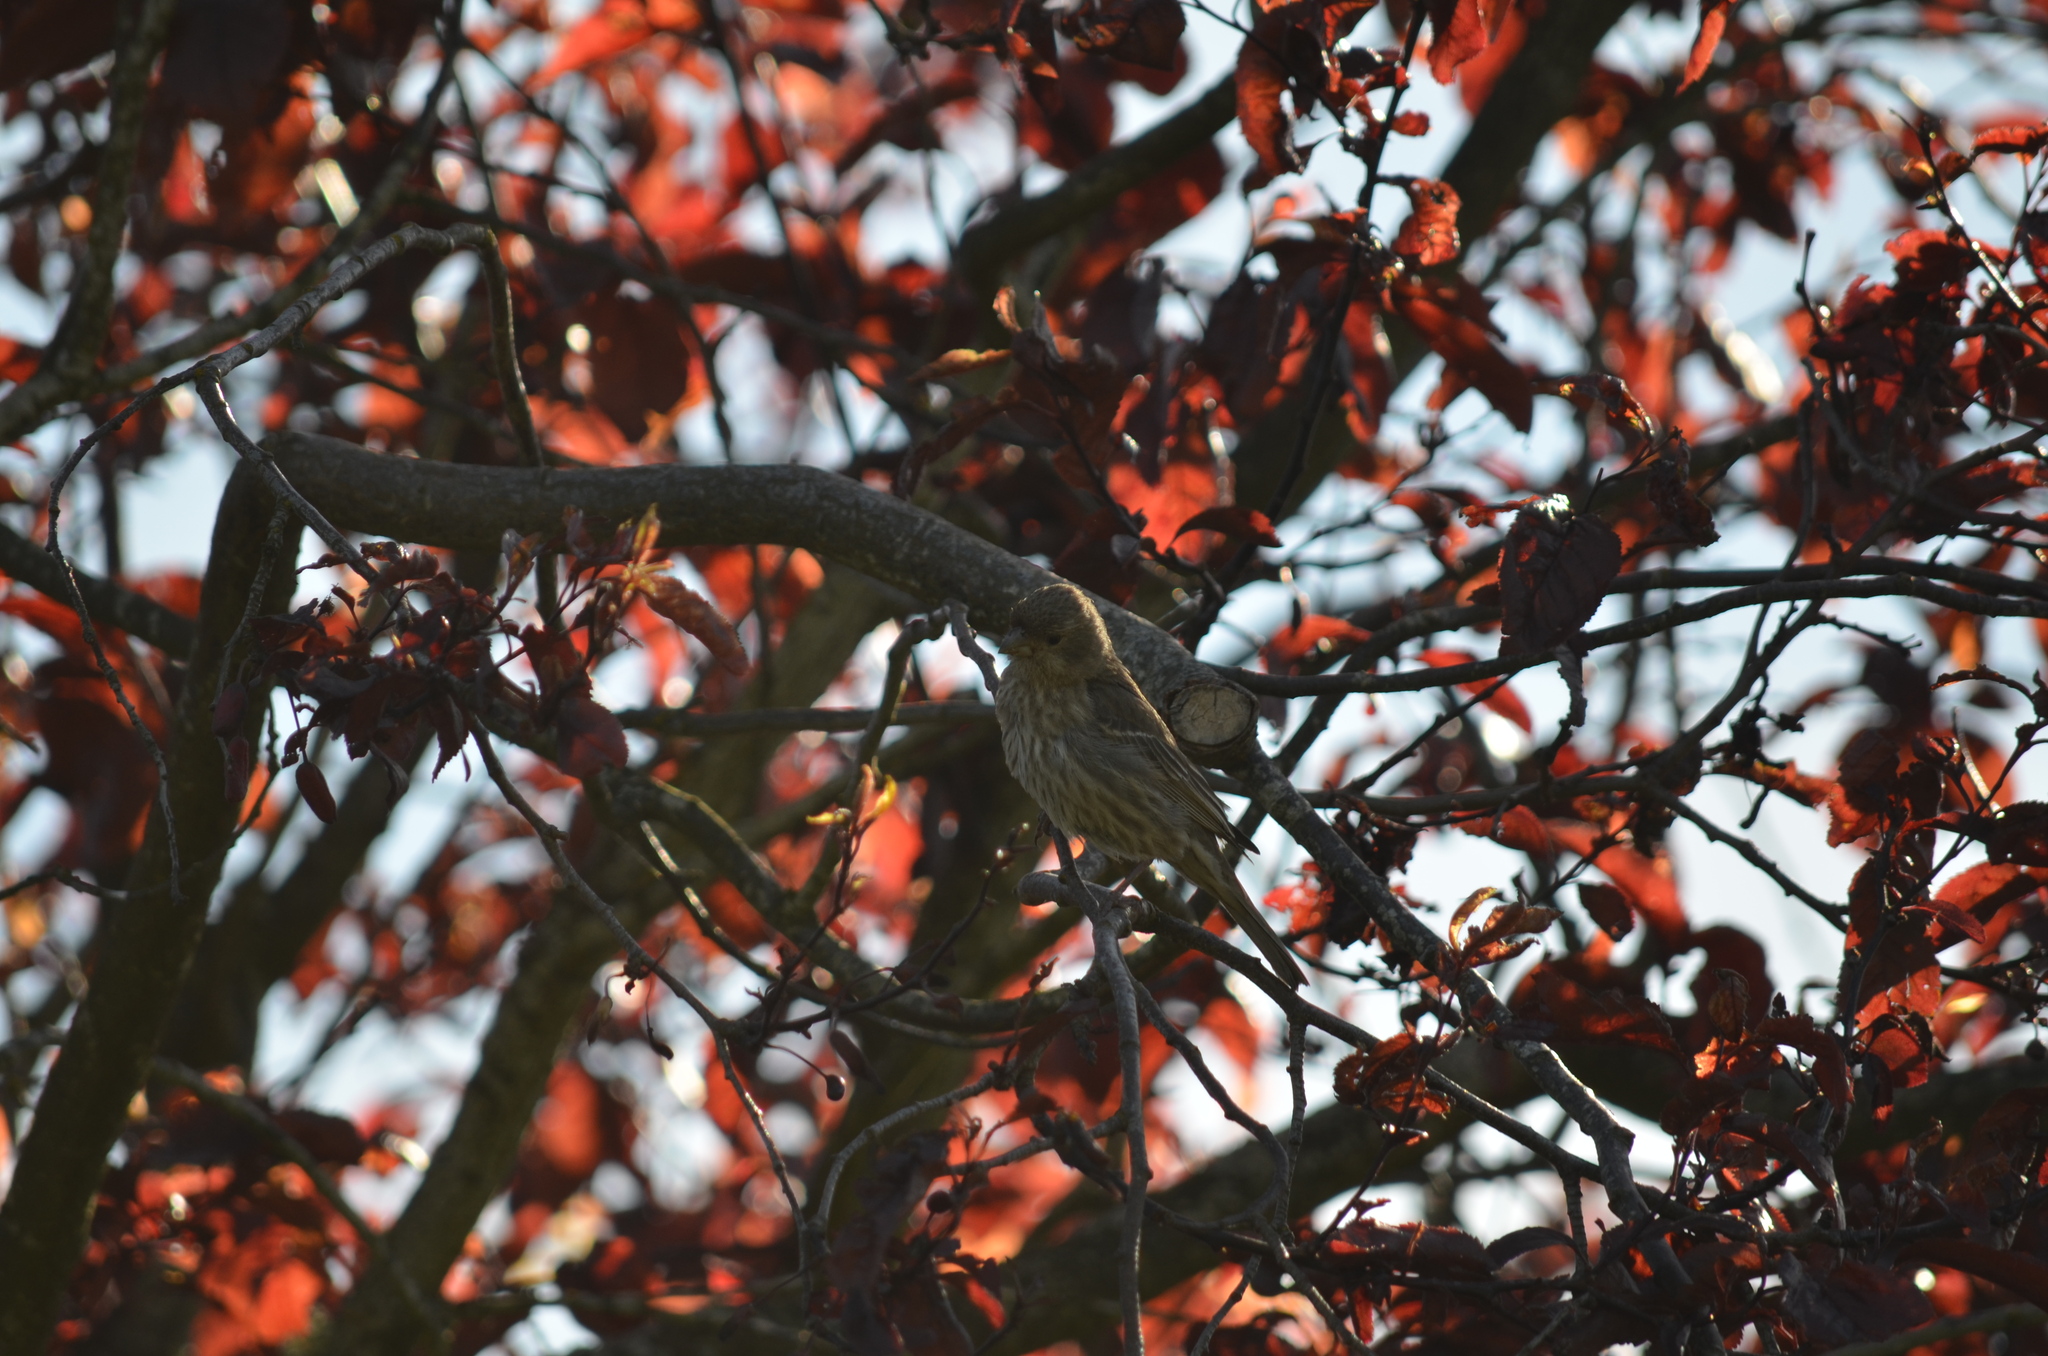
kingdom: Animalia
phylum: Chordata
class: Aves
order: Passeriformes
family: Fringillidae
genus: Haemorhous
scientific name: Haemorhous mexicanus
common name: House finch
